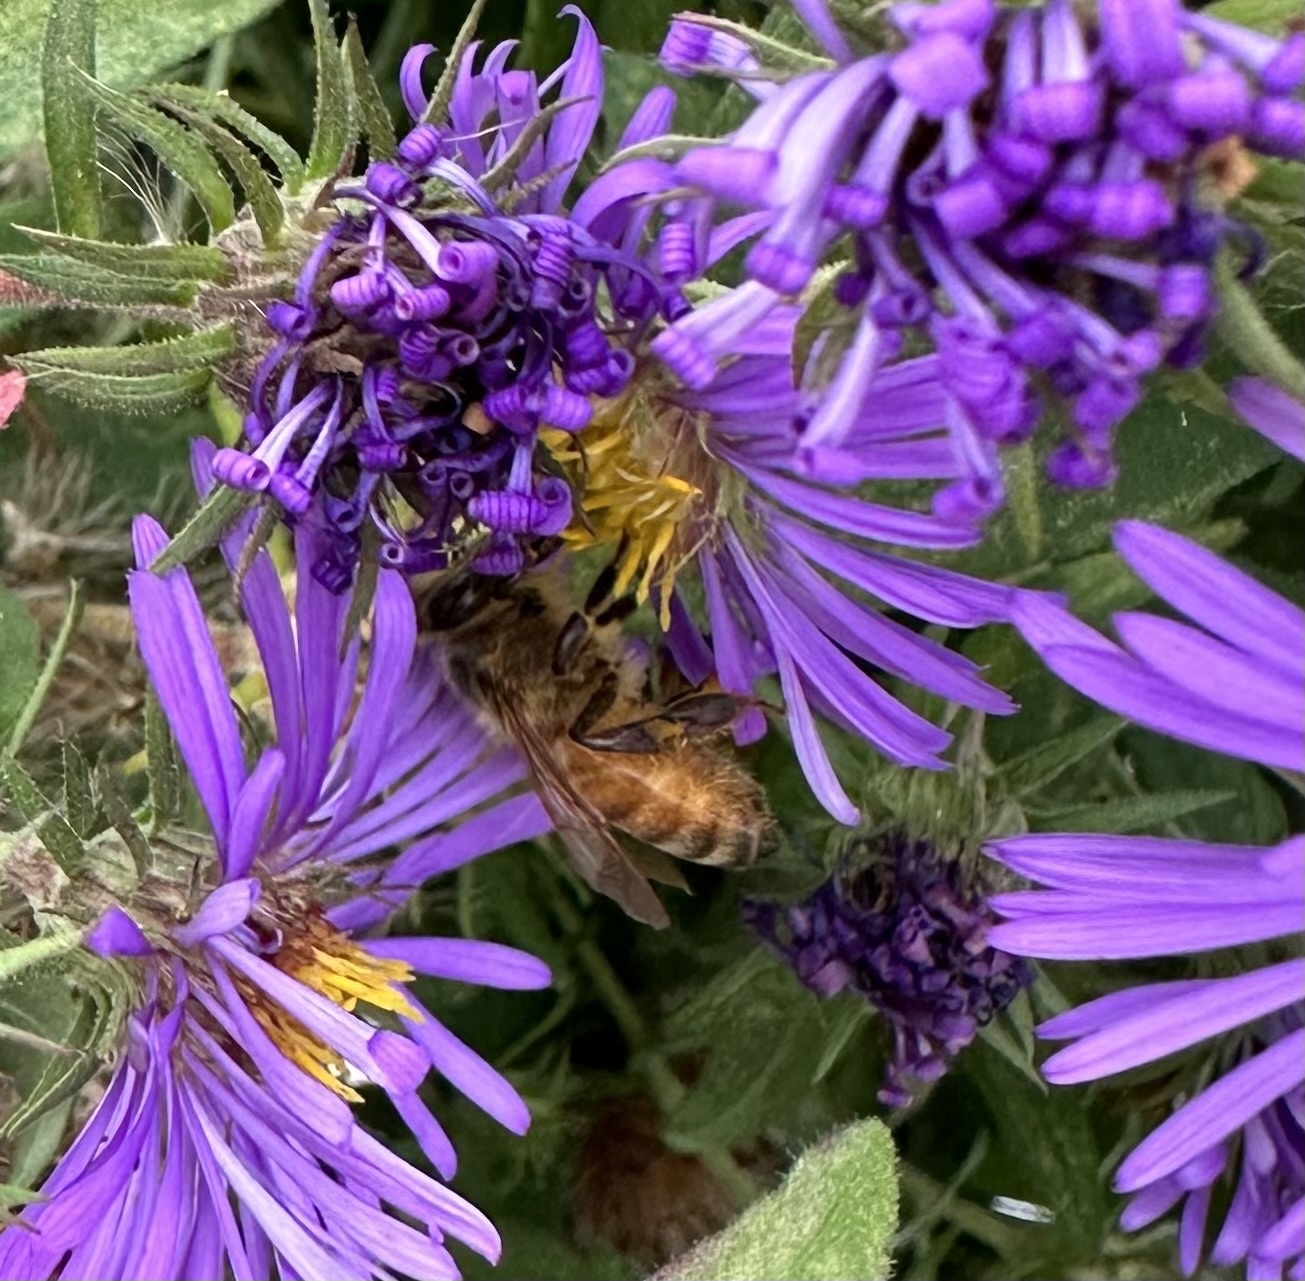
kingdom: Animalia
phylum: Arthropoda
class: Insecta
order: Hymenoptera
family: Apidae
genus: Apis
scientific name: Apis mellifera
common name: Honey bee
